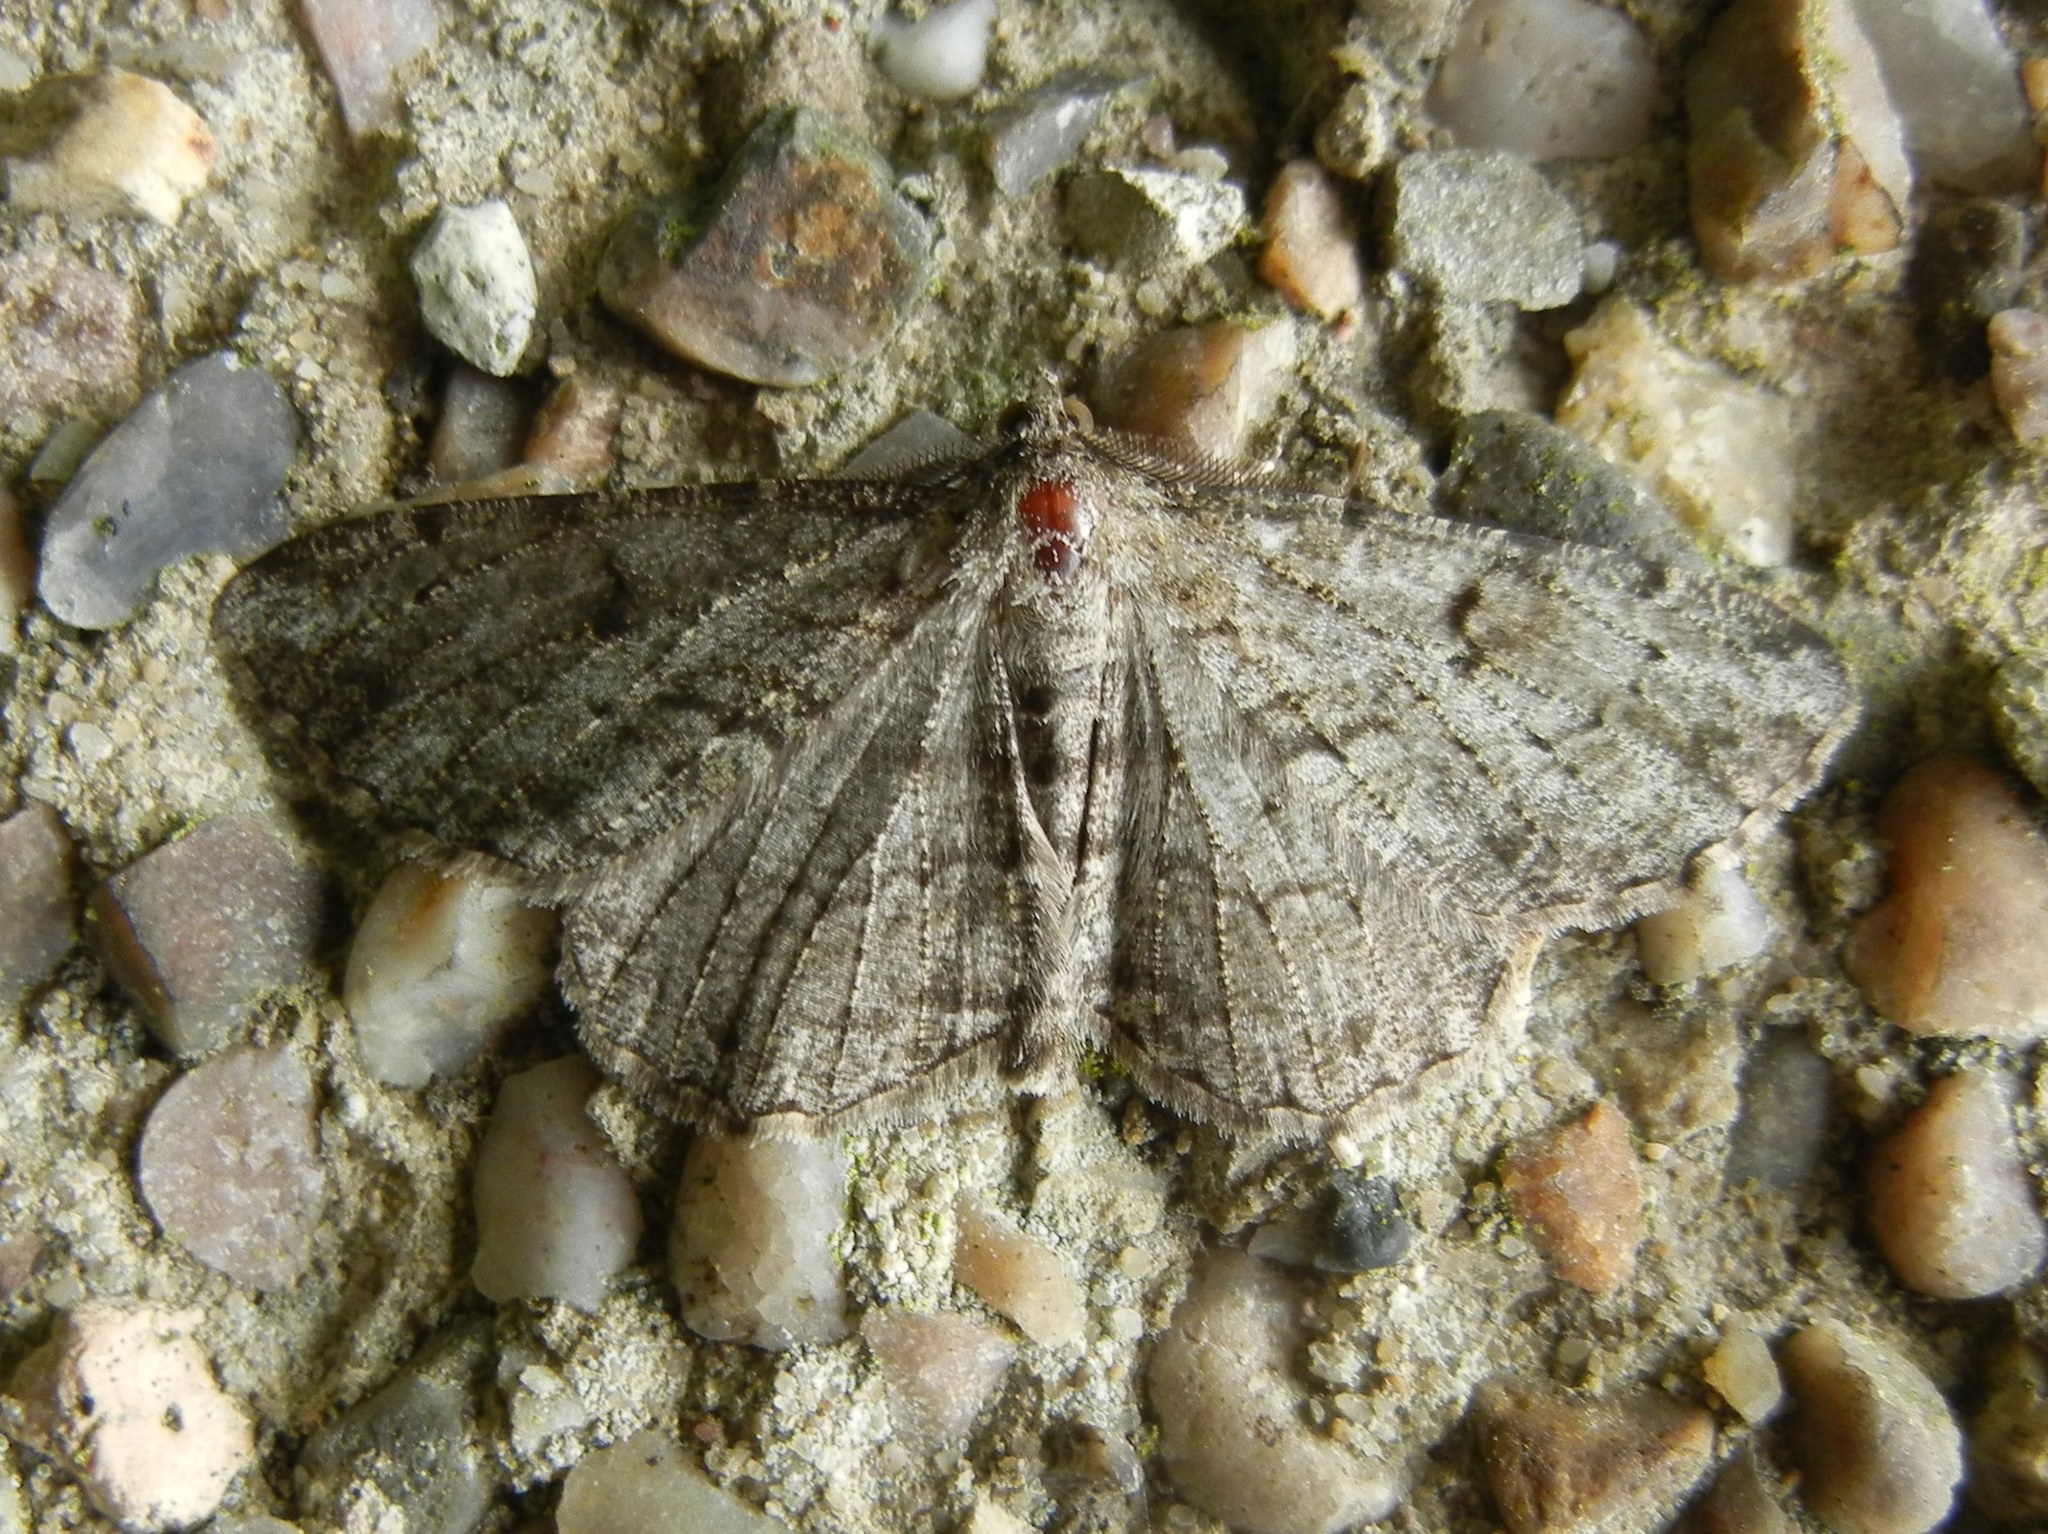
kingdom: Animalia
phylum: Arthropoda
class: Insecta
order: Lepidoptera
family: Geometridae
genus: Peribatodes
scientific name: Peribatodes rhomboidaria
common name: Willow beauty
